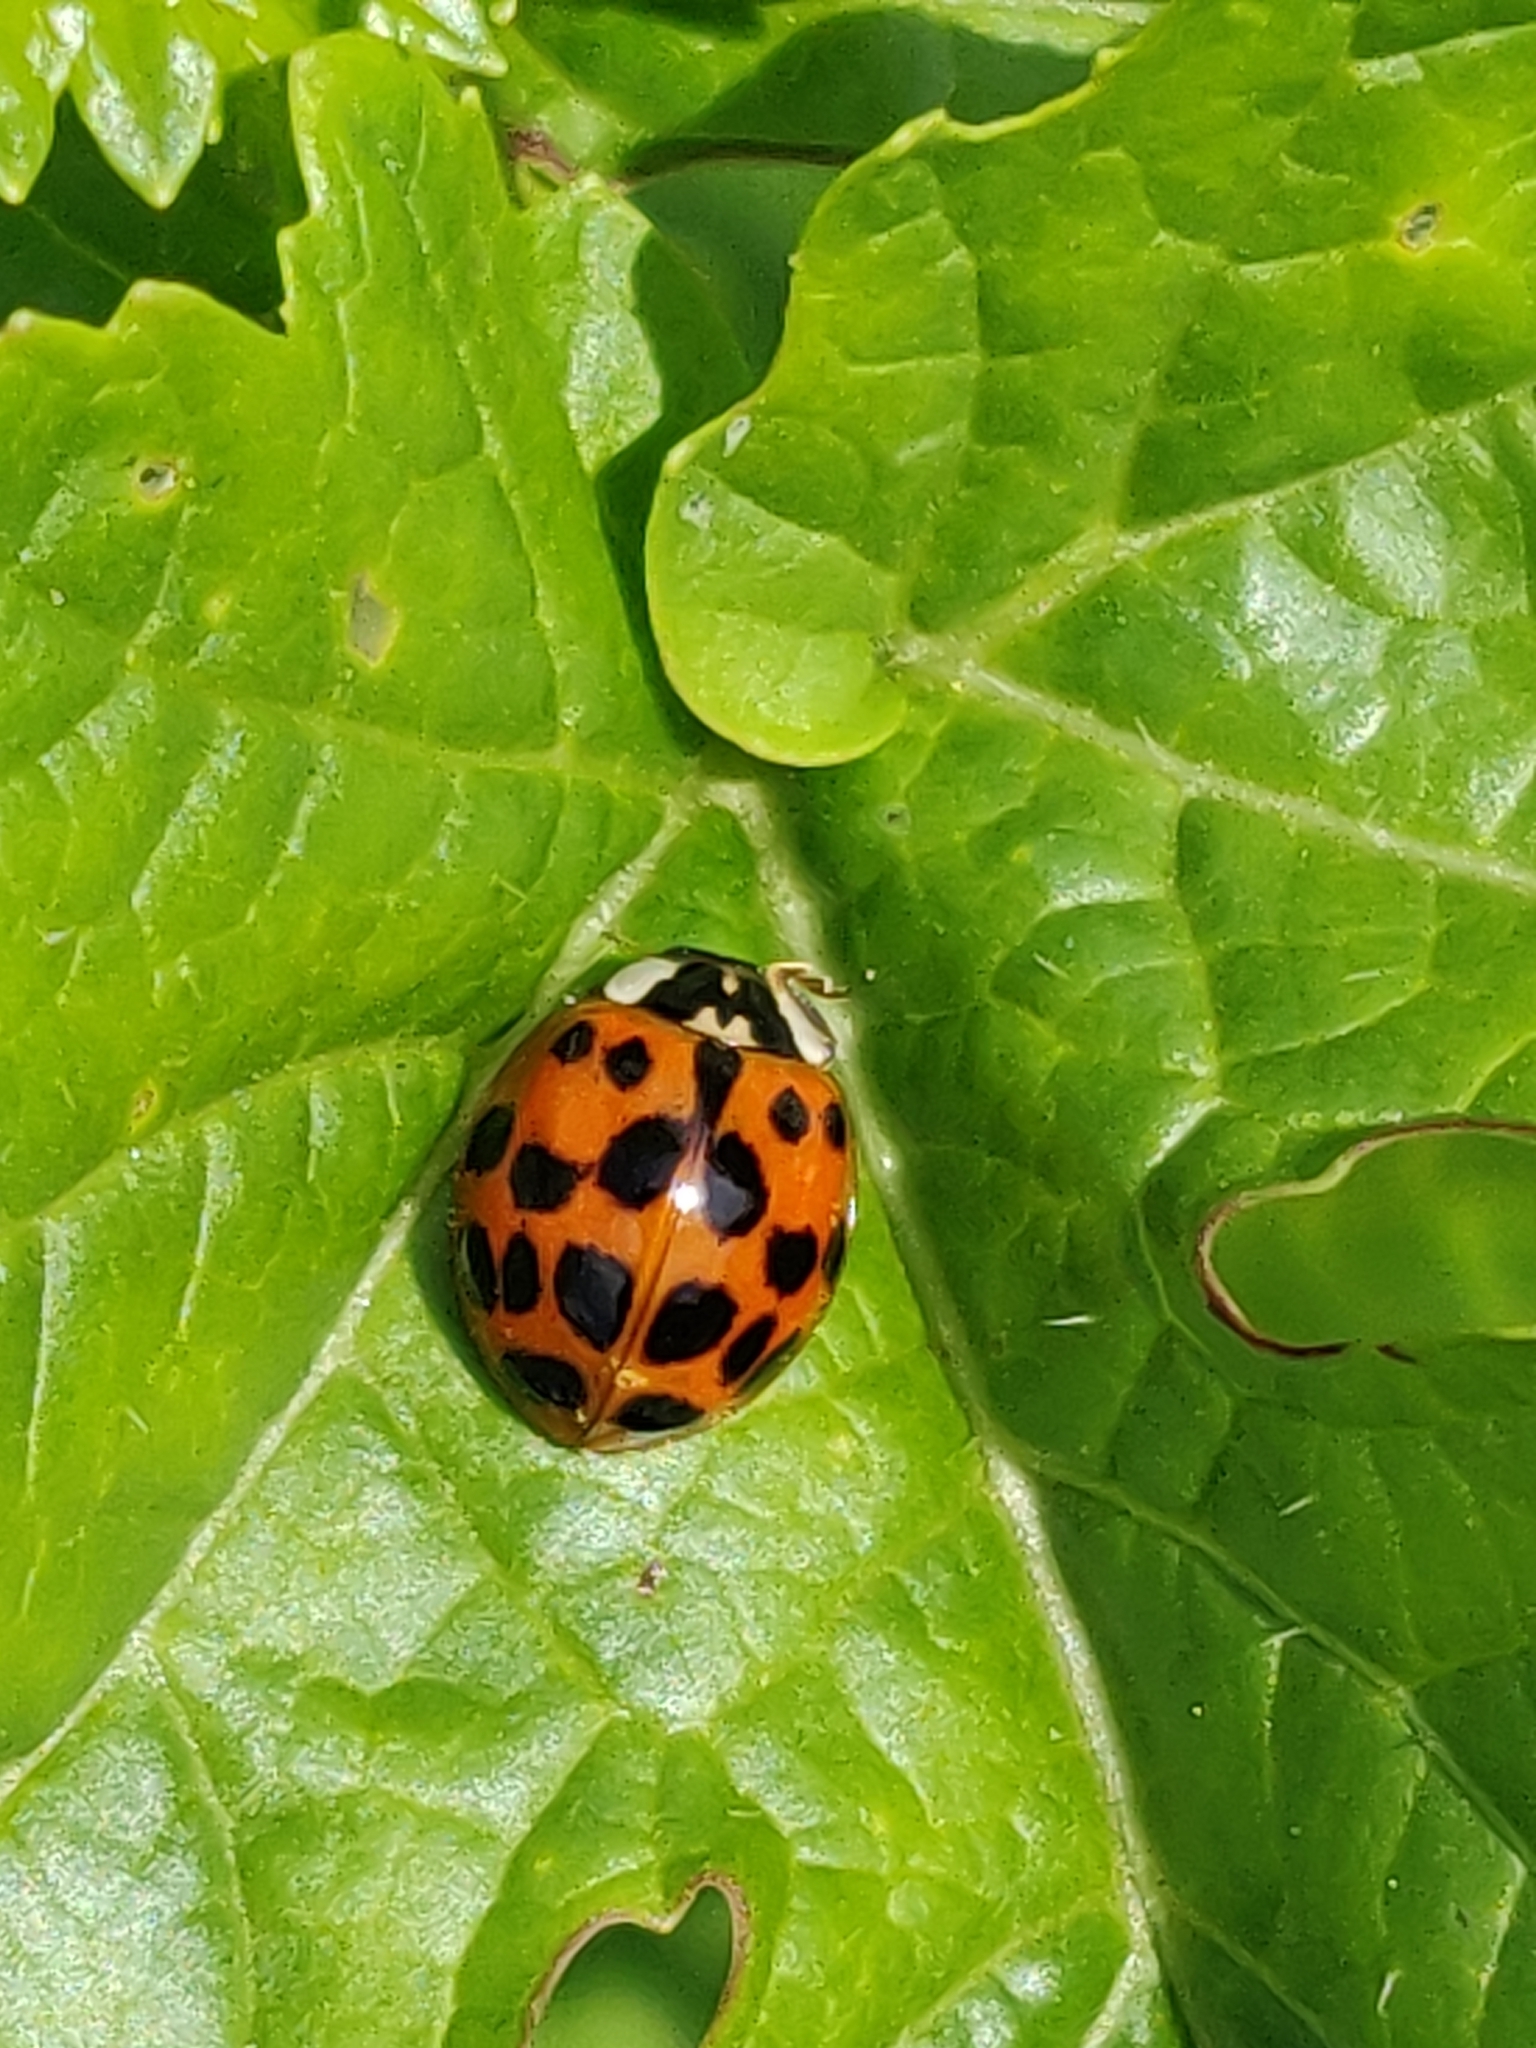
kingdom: Animalia
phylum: Arthropoda
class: Insecta
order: Coleoptera
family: Coccinellidae
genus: Harmonia
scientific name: Harmonia axyridis
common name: Harlequin ladybird
